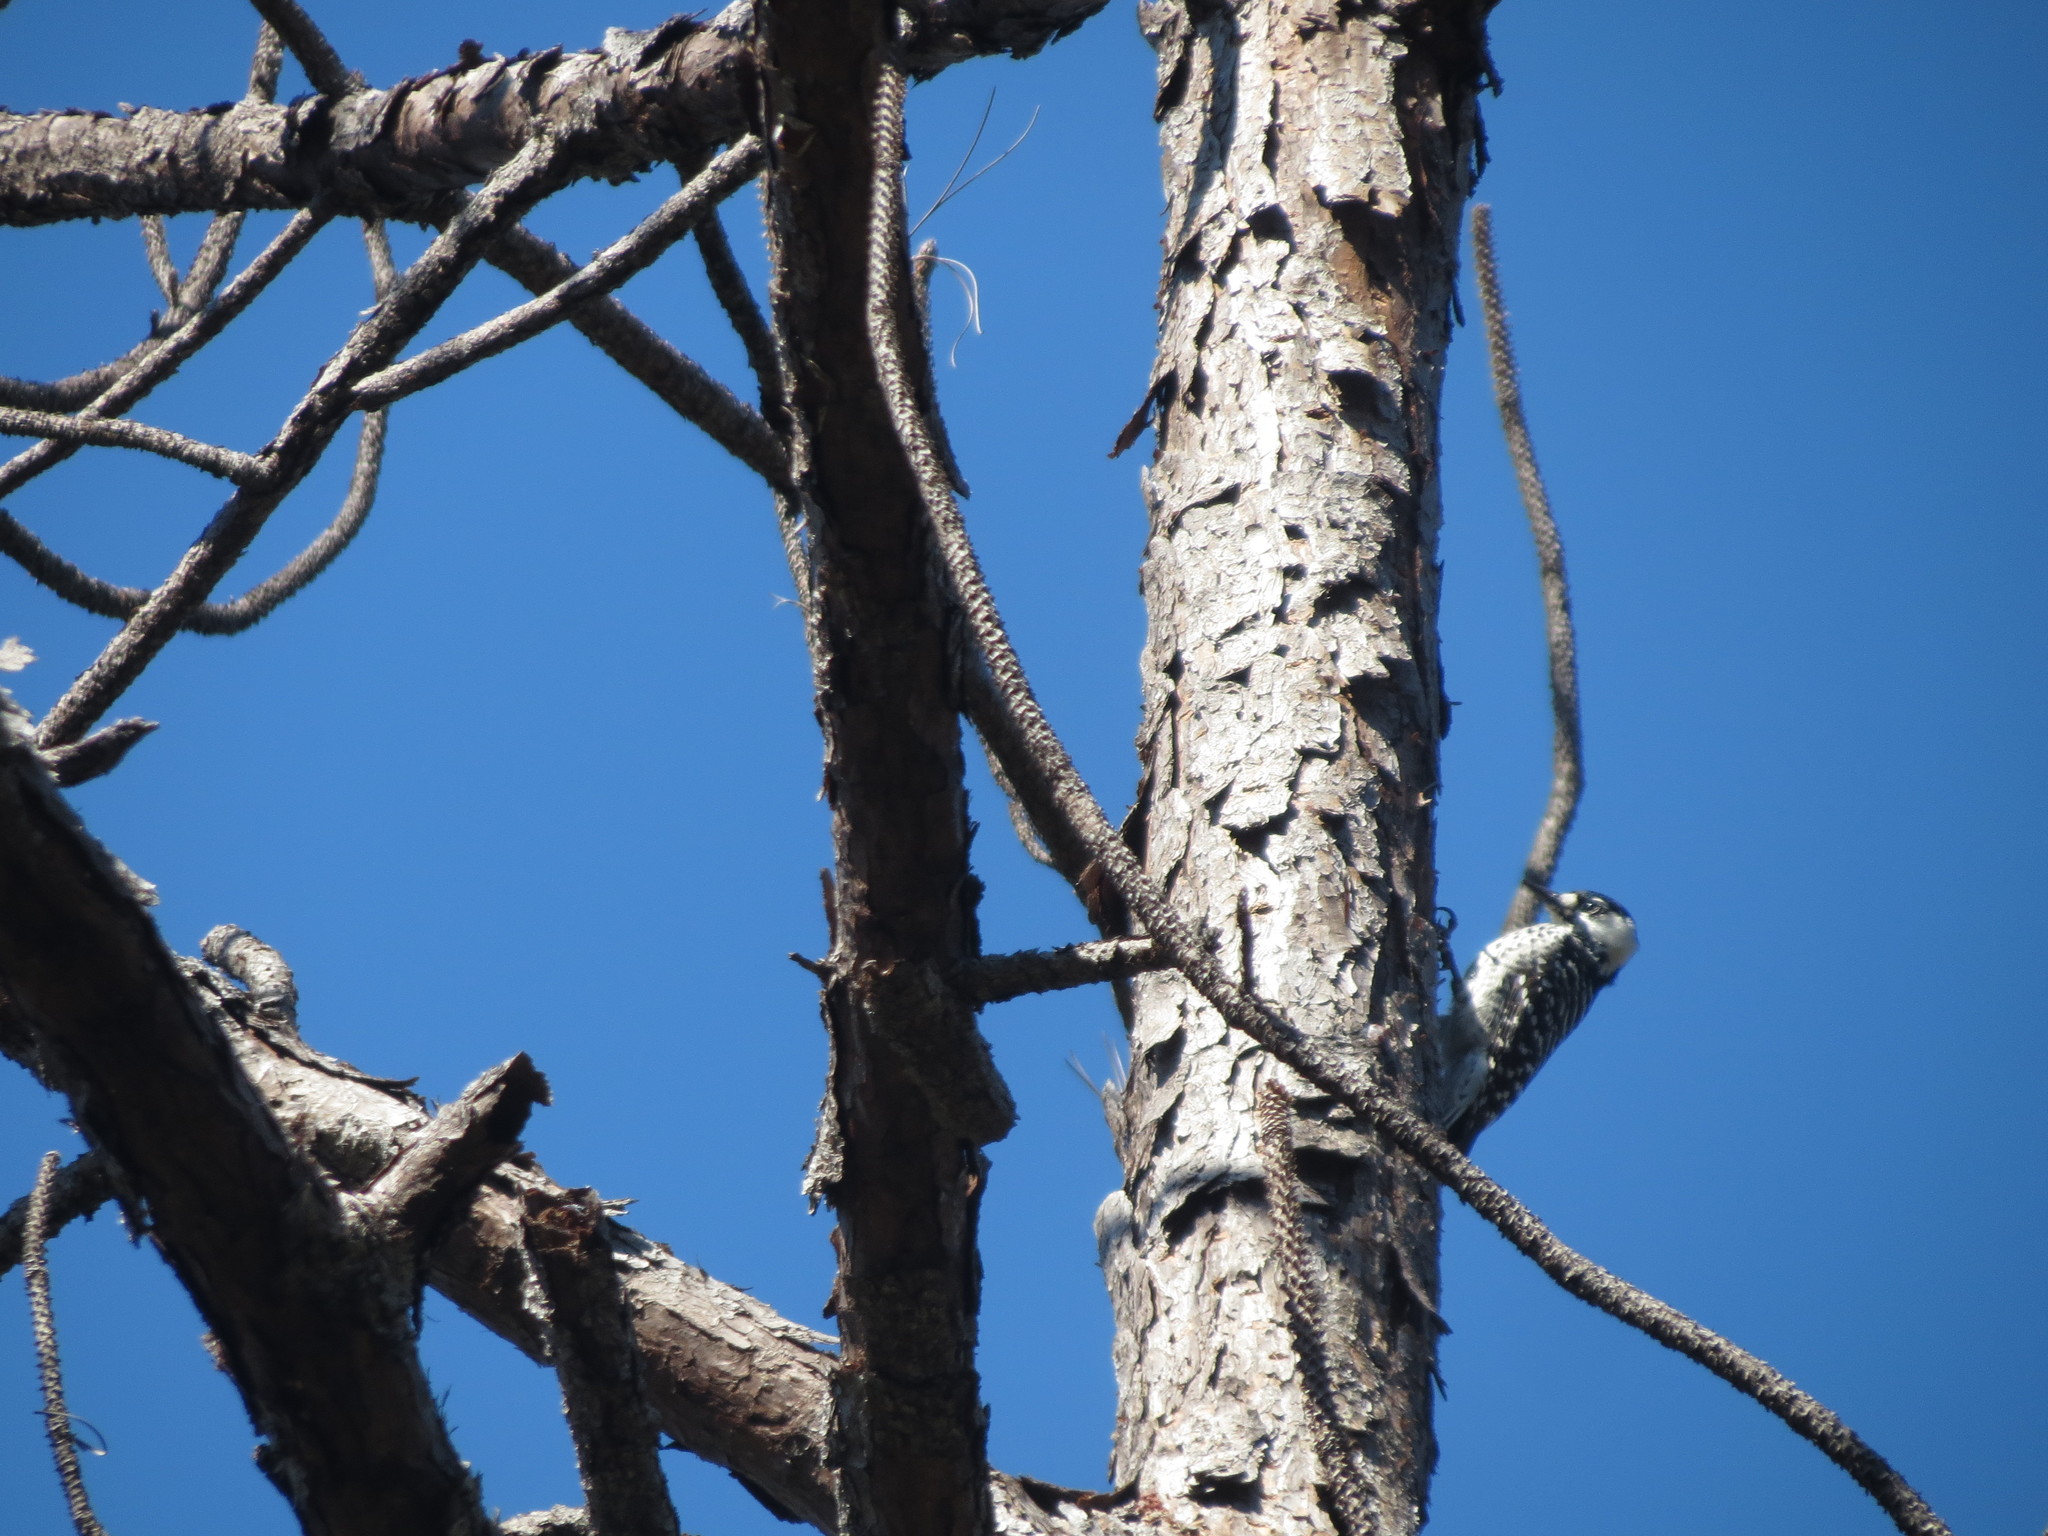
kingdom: Animalia
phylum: Chordata
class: Aves
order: Piciformes
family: Picidae
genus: Leuconotopicus
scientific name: Leuconotopicus borealis
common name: Red-cockaded woodpecker
